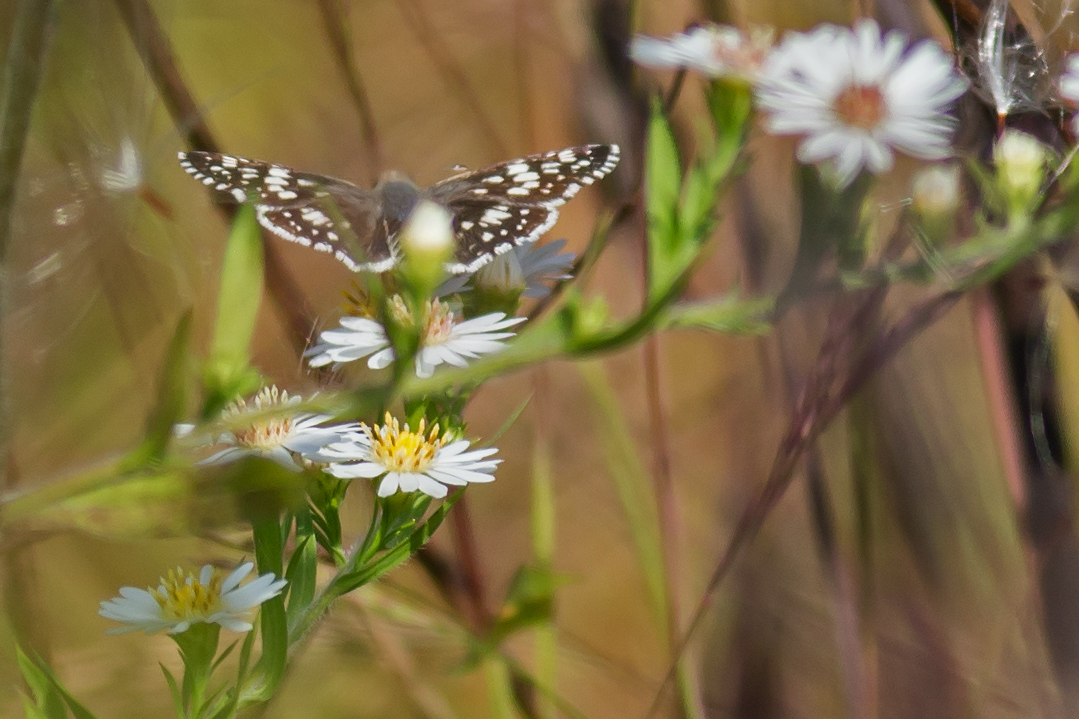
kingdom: Animalia
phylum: Arthropoda
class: Insecta
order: Lepidoptera
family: Hesperiidae
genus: Burnsius
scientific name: Burnsius communis
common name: Common checkered-skipper
